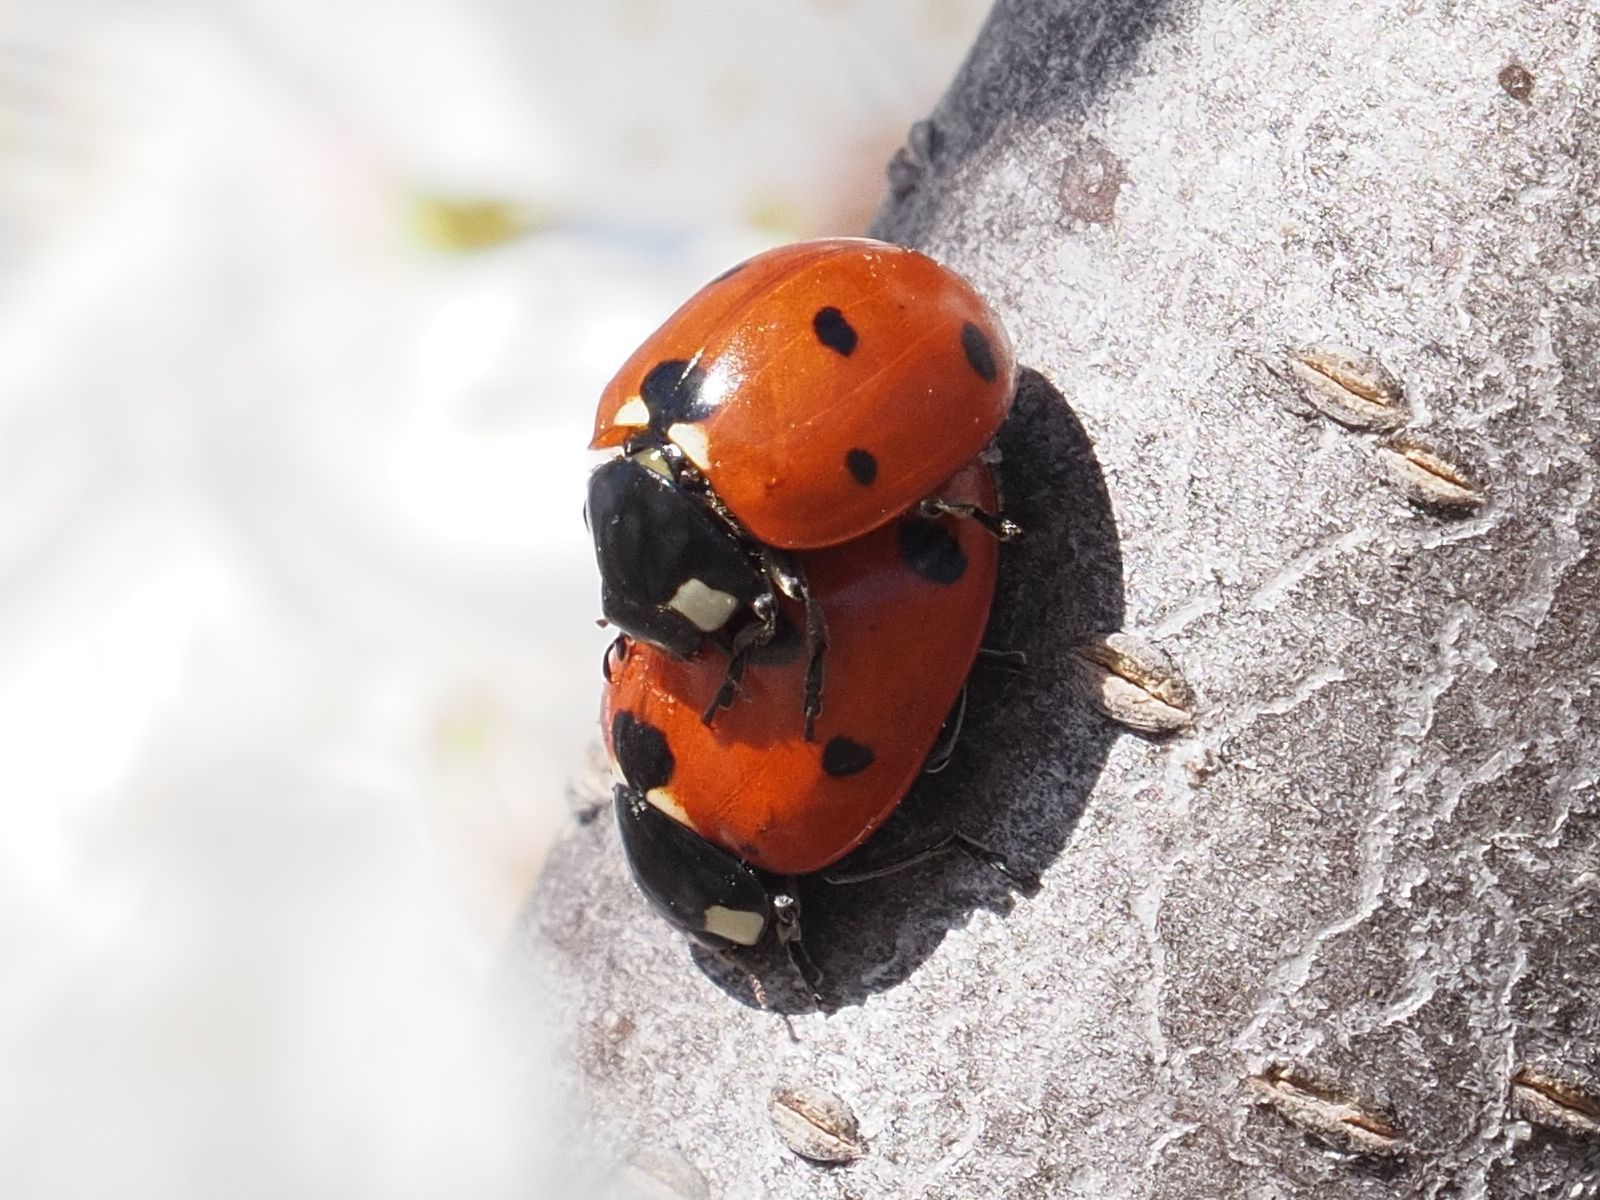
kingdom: Animalia
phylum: Arthropoda
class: Insecta
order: Coleoptera
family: Coccinellidae
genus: Coccinella
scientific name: Coccinella septempunctata
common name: Sevenspotted lady beetle
